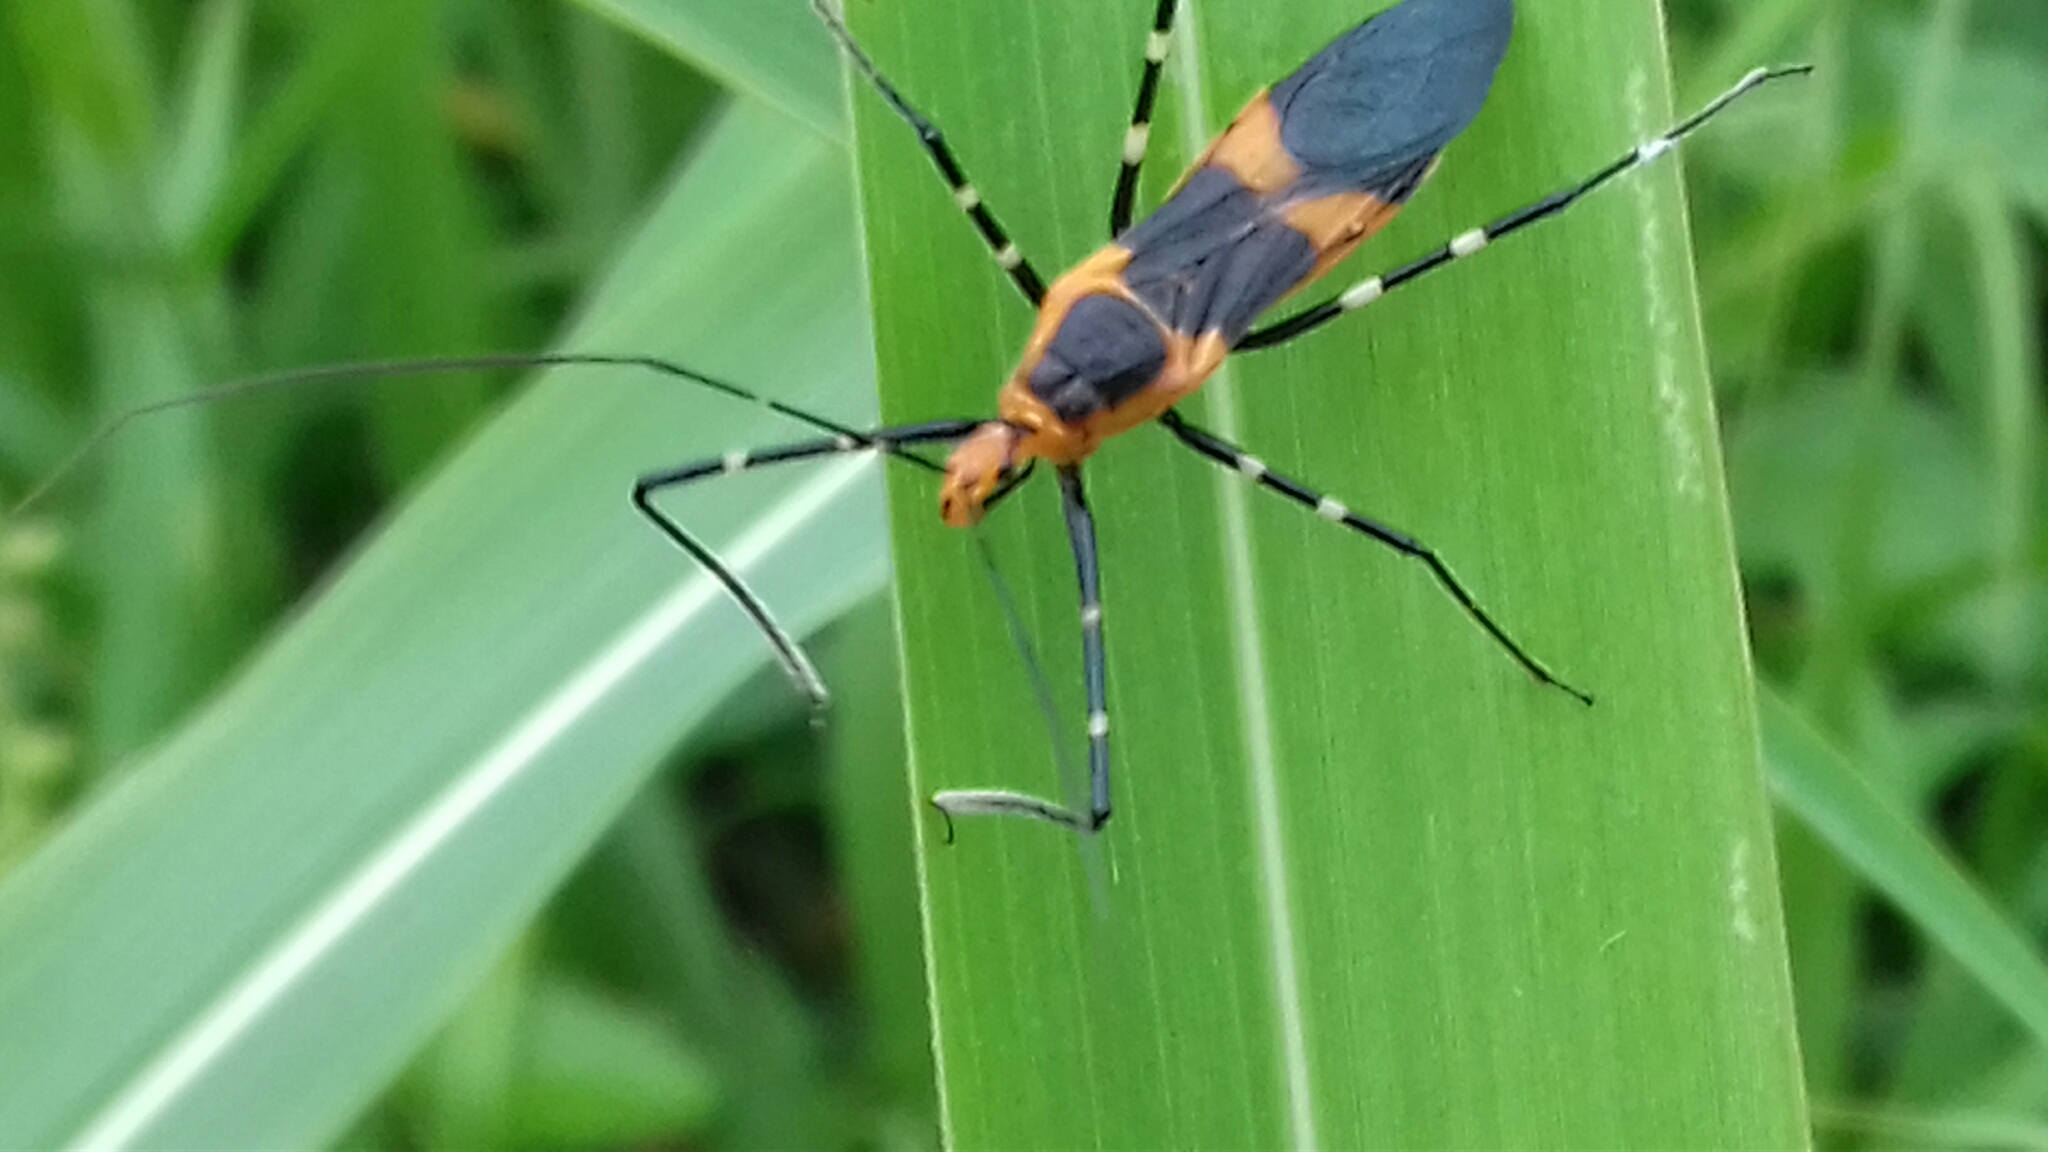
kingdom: Animalia
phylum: Arthropoda
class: Insecta
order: Hemiptera
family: Reduviidae
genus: Zelus
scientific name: Zelus longipes
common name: Milkweed assassin bug
